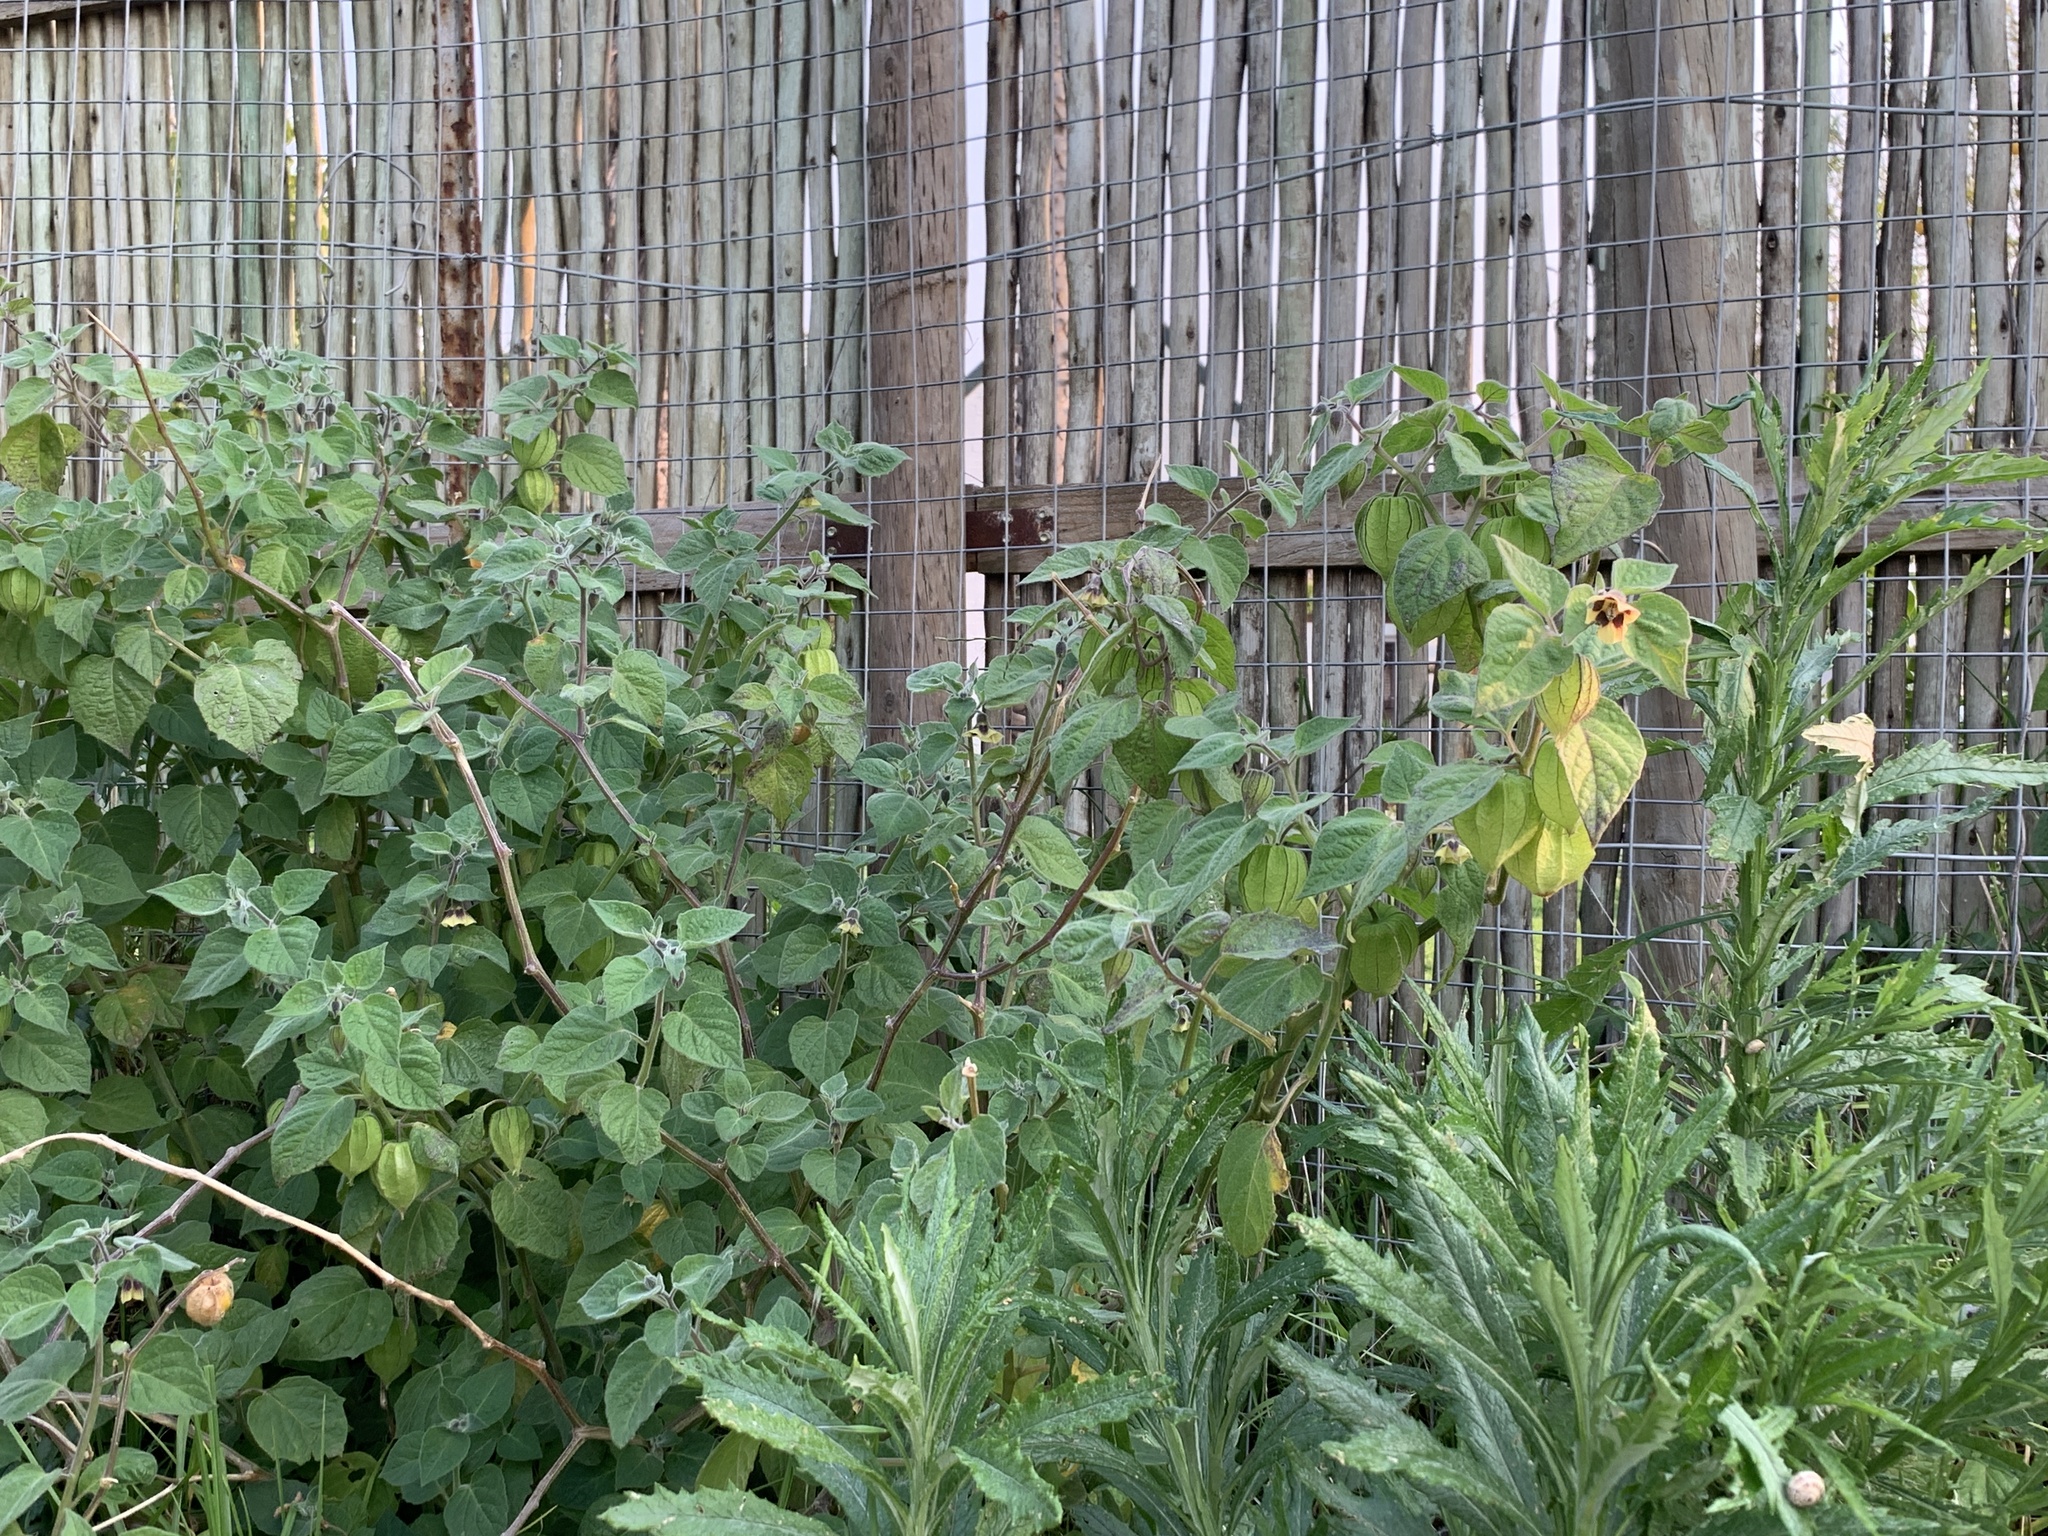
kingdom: Plantae
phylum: Tracheophyta
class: Magnoliopsida
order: Solanales
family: Solanaceae
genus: Physalis
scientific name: Physalis peruviana
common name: Cape-gooseberry
